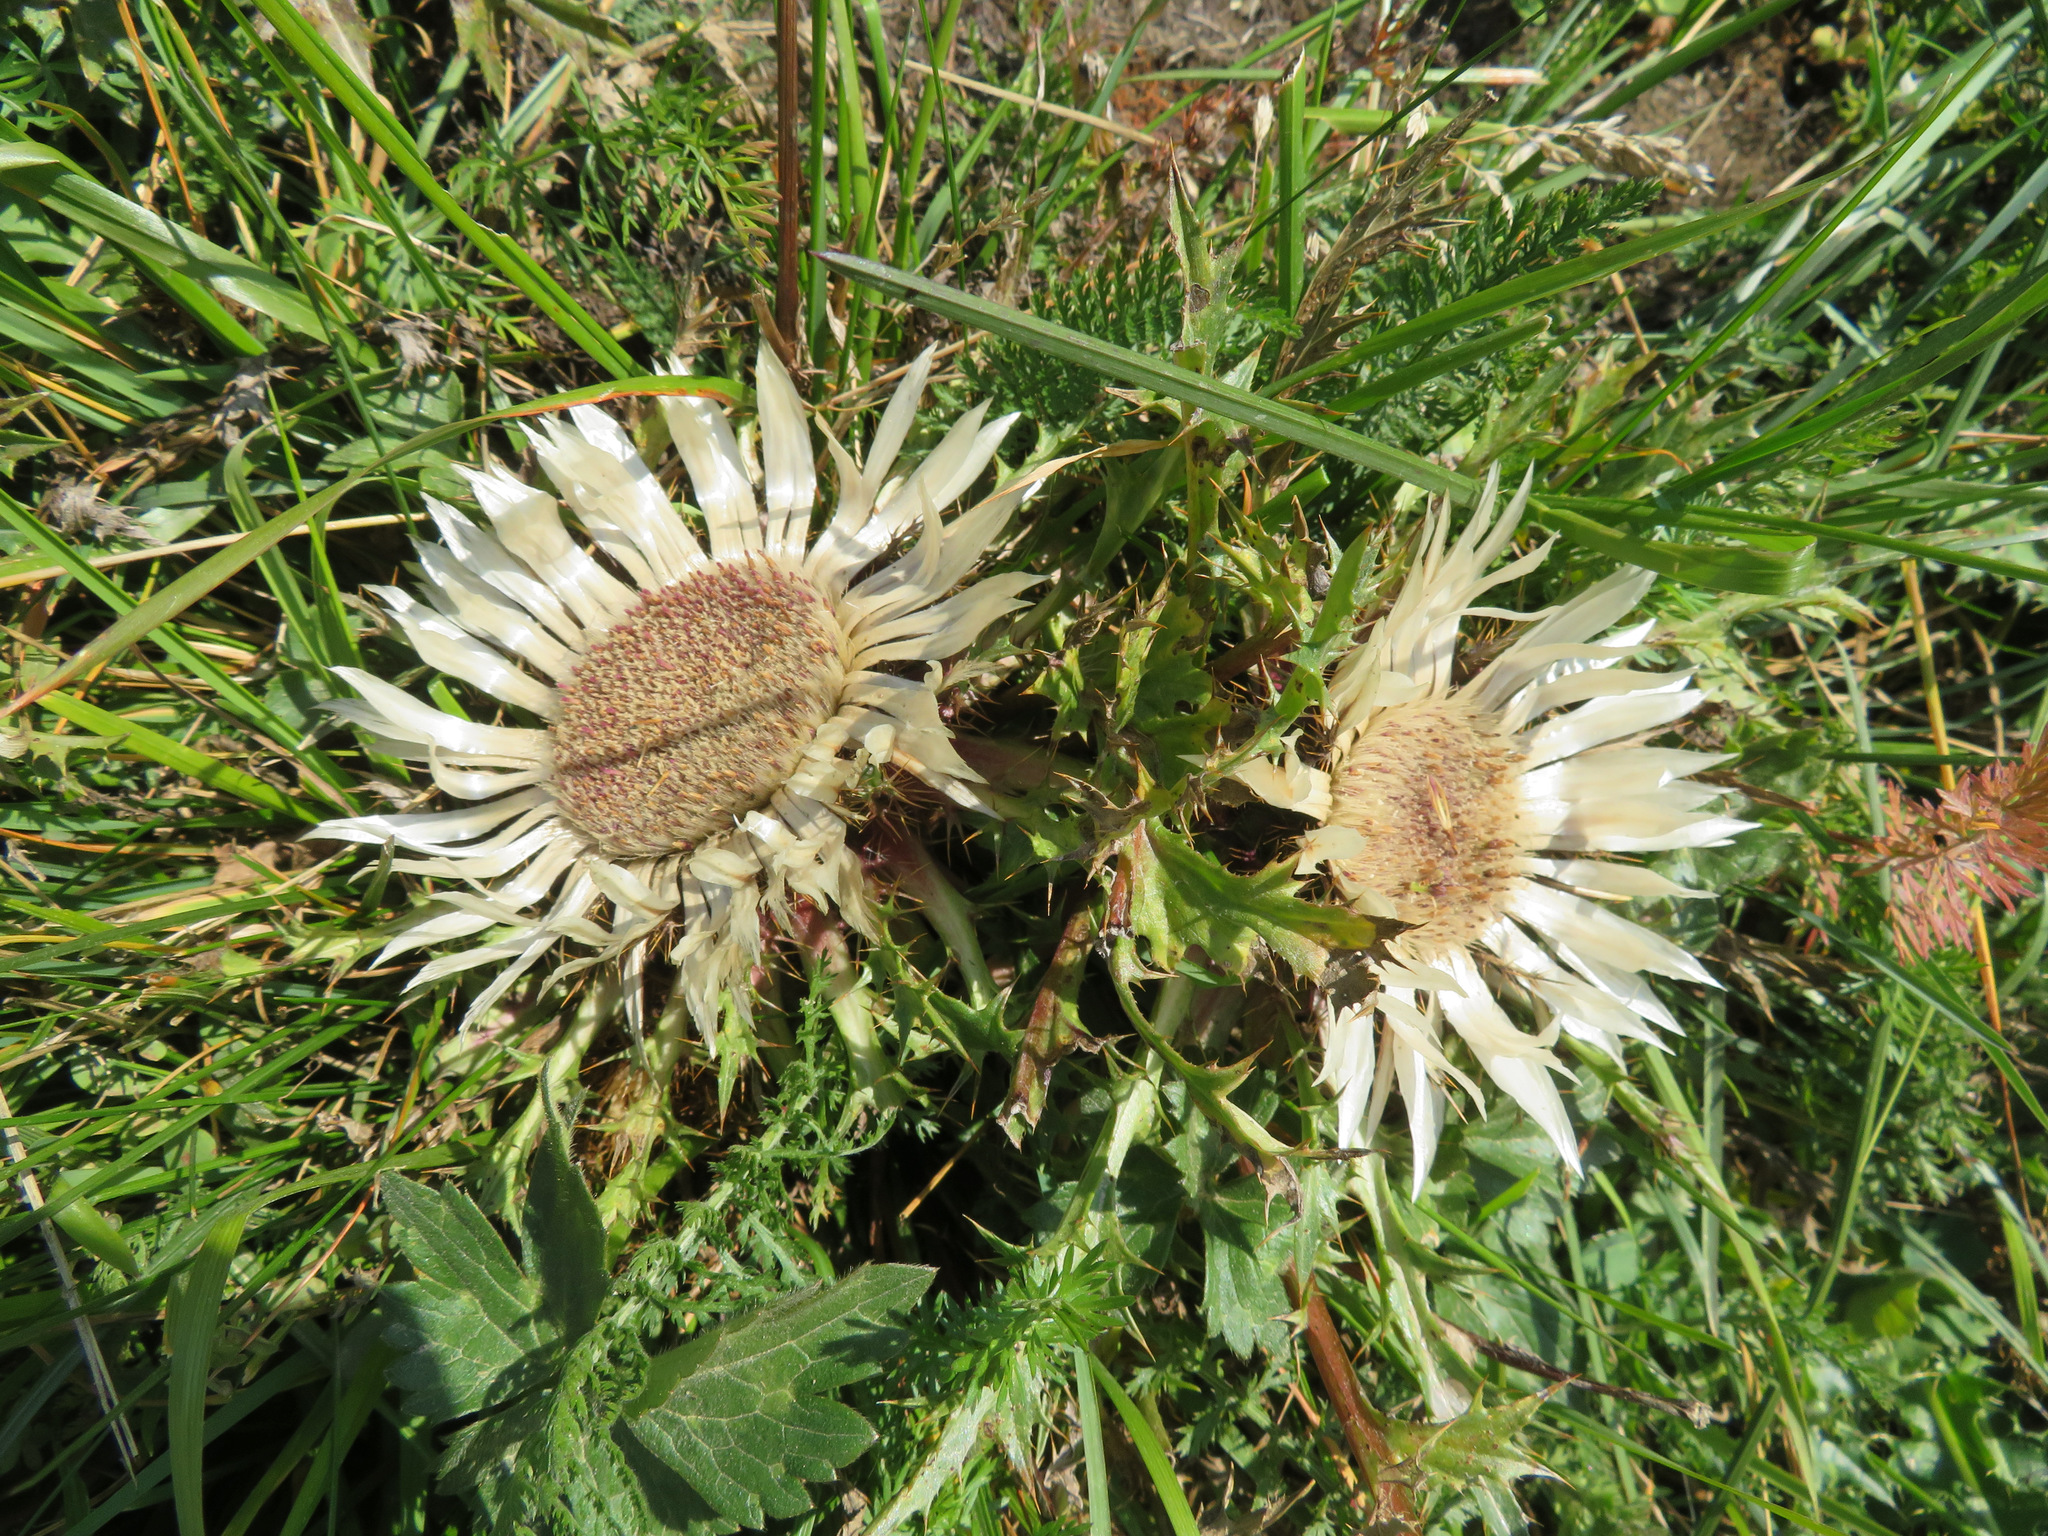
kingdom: Plantae
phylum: Tracheophyta
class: Magnoliopsida
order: Asterales
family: Asteraceae
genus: Carlina
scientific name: Carlina acaulis
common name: Stemless carline thistle
